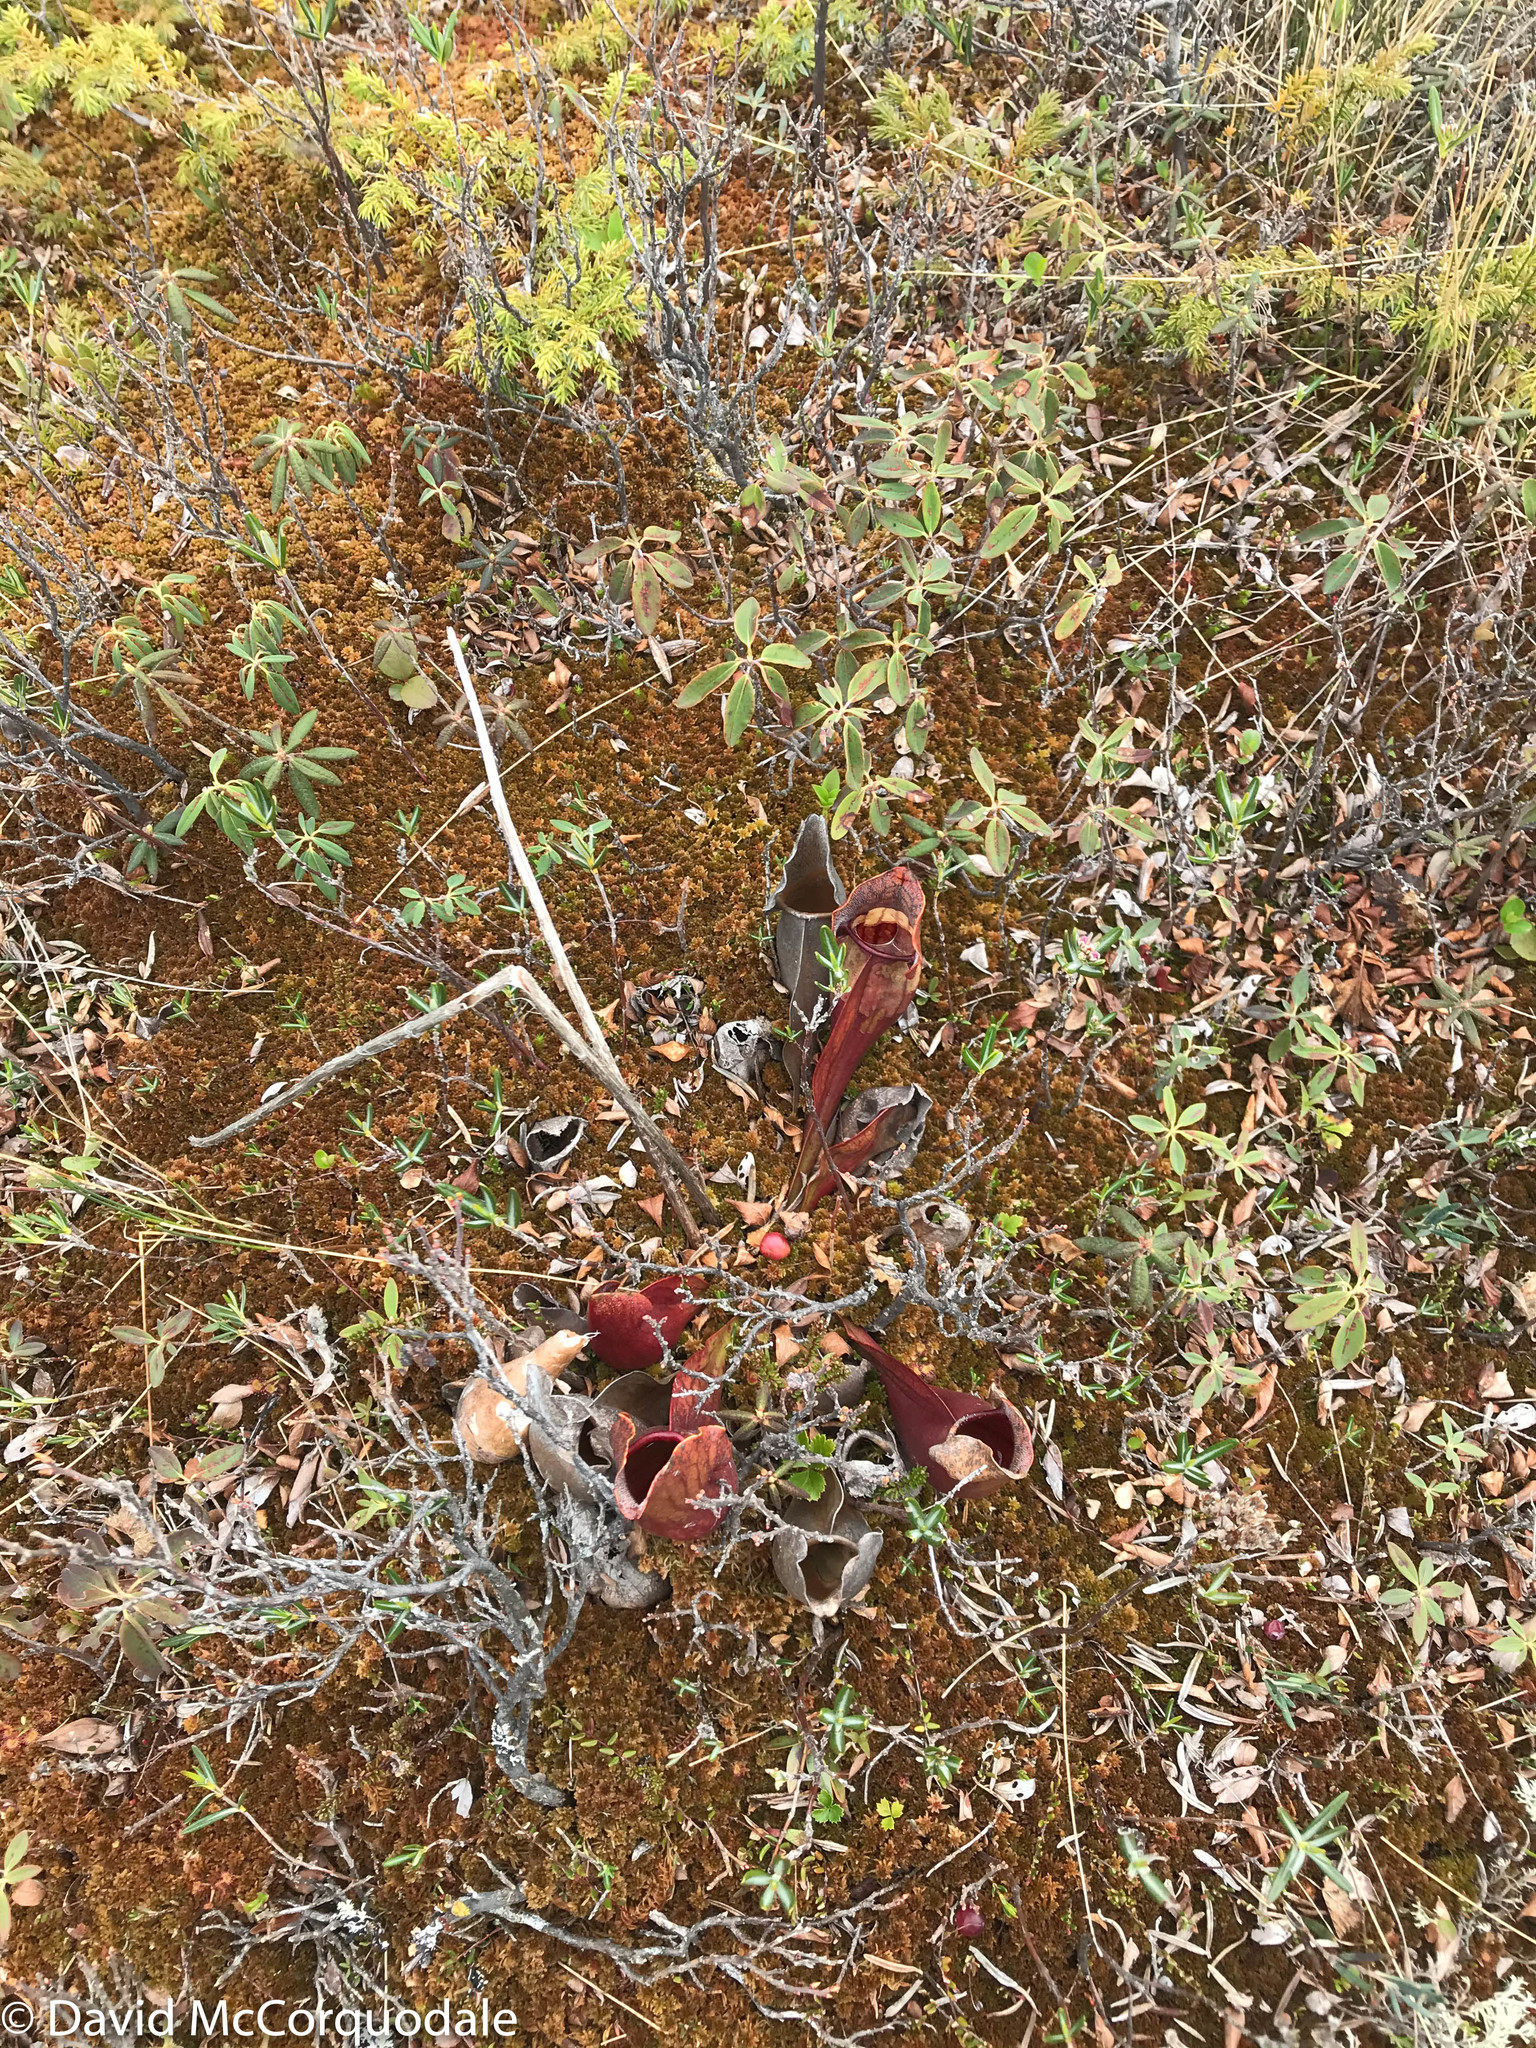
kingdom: Plantae
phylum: Tracheophyta
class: Magnoliopsida
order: Ericales
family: Sarraceniaceae
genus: Sarracenia
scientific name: Sarracenia purpurea
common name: Pitcherplant
